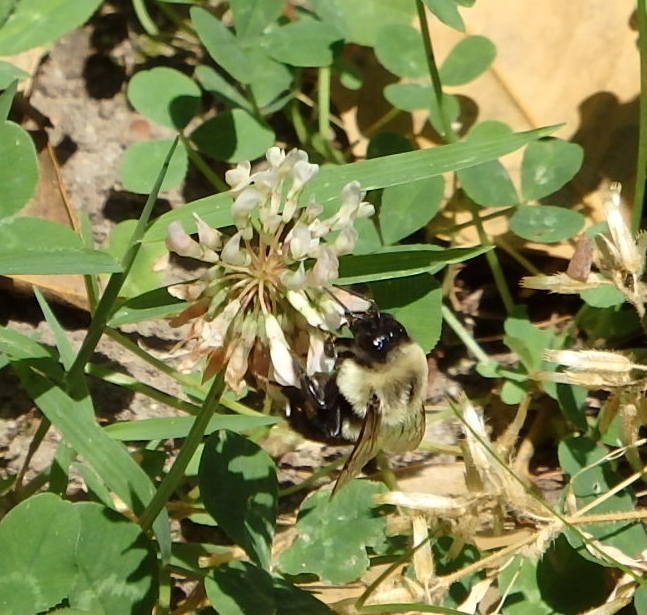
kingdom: Animalia
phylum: Arthropoda
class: Insecta
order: Hymenoptera
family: Apidae
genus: Bombus
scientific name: Bombus impatiens
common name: Common eastern bumble bee
